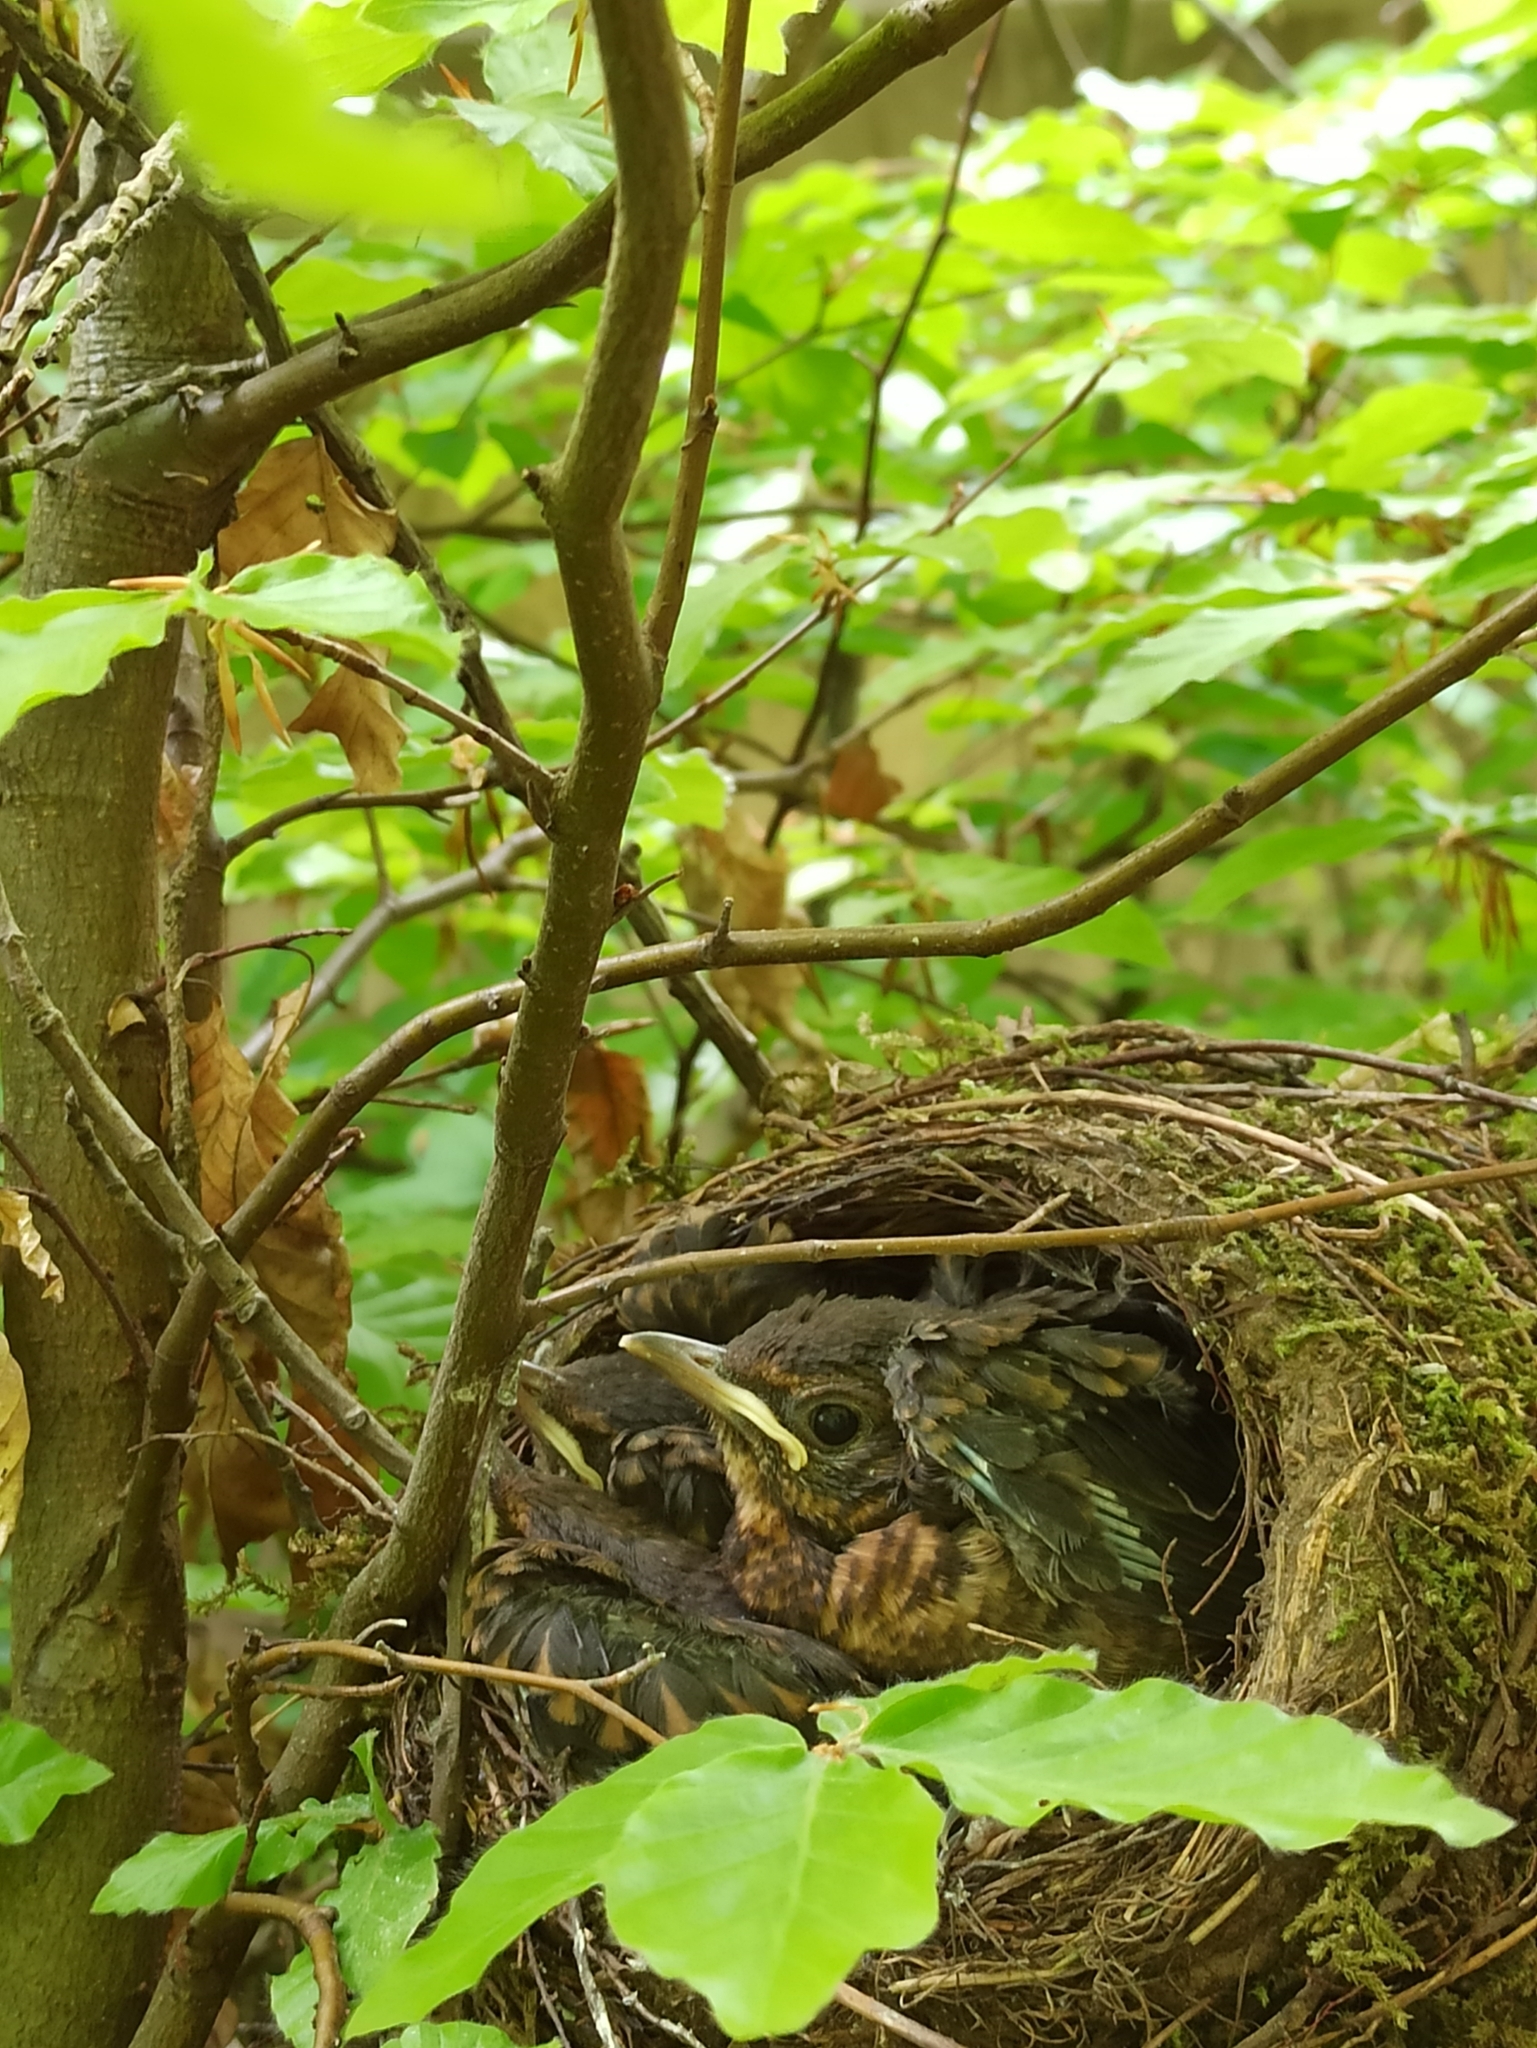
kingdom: Animalia
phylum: Chordata
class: Aves
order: Passeriformes
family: Turdidae
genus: Turdus
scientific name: Turdus merula
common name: Common blackbird
